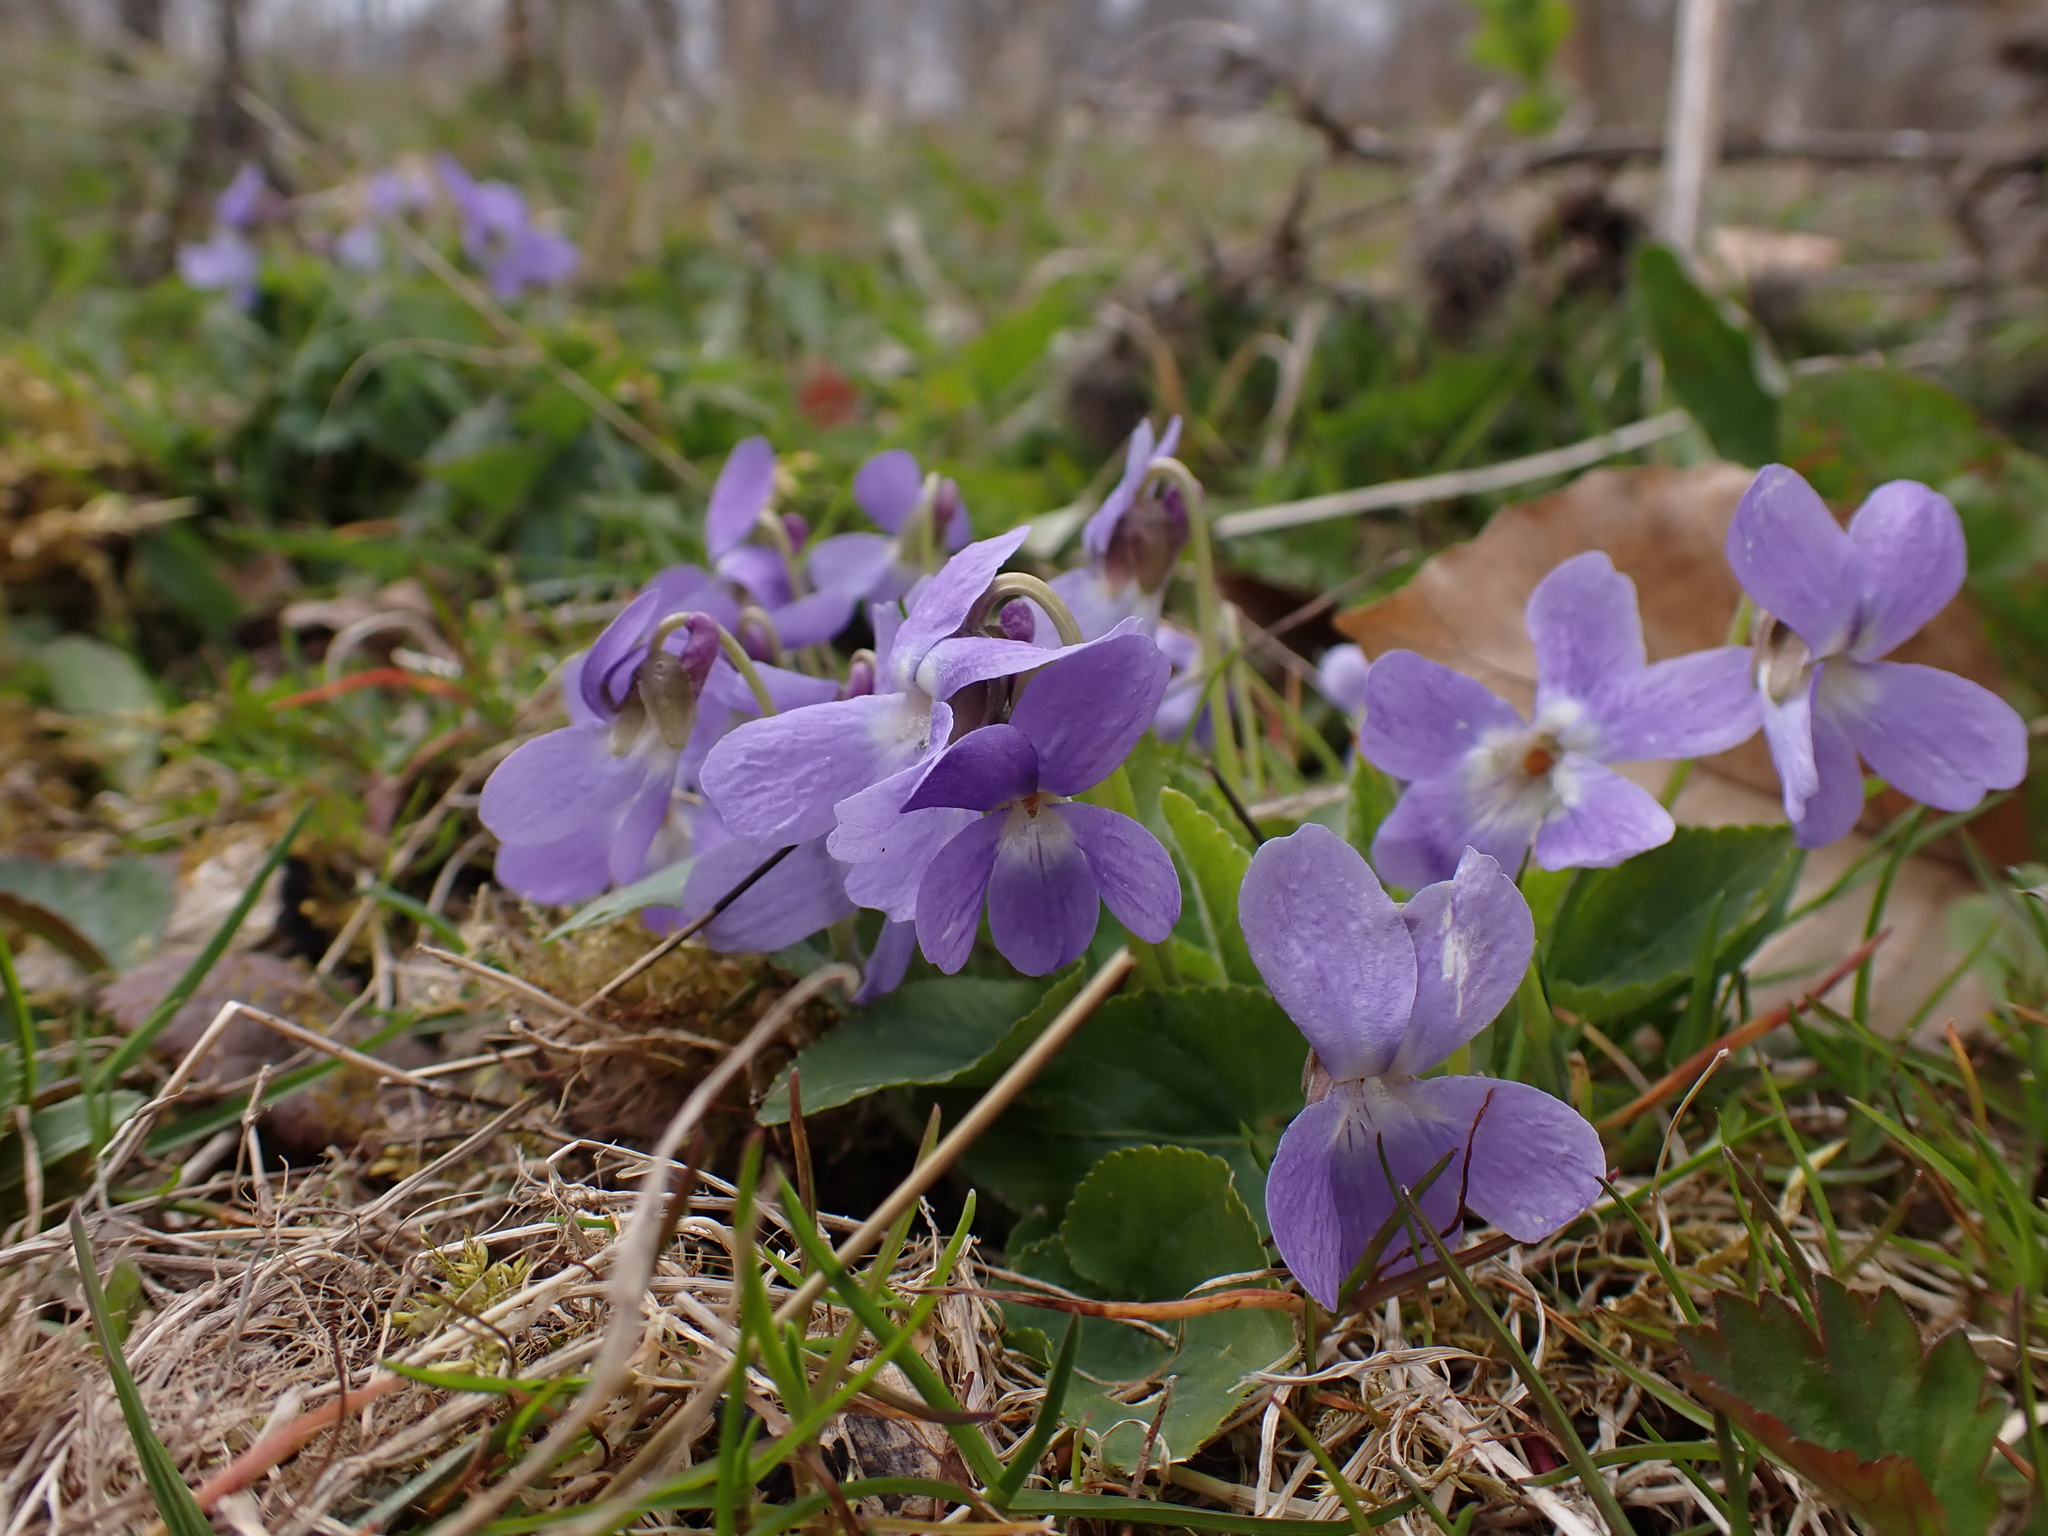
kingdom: Plantae
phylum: Tracheophyta
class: Magnoliopsida
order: Malpighiales
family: Violaceae
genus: Viola
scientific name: Viola hirta
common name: Hairy violet
